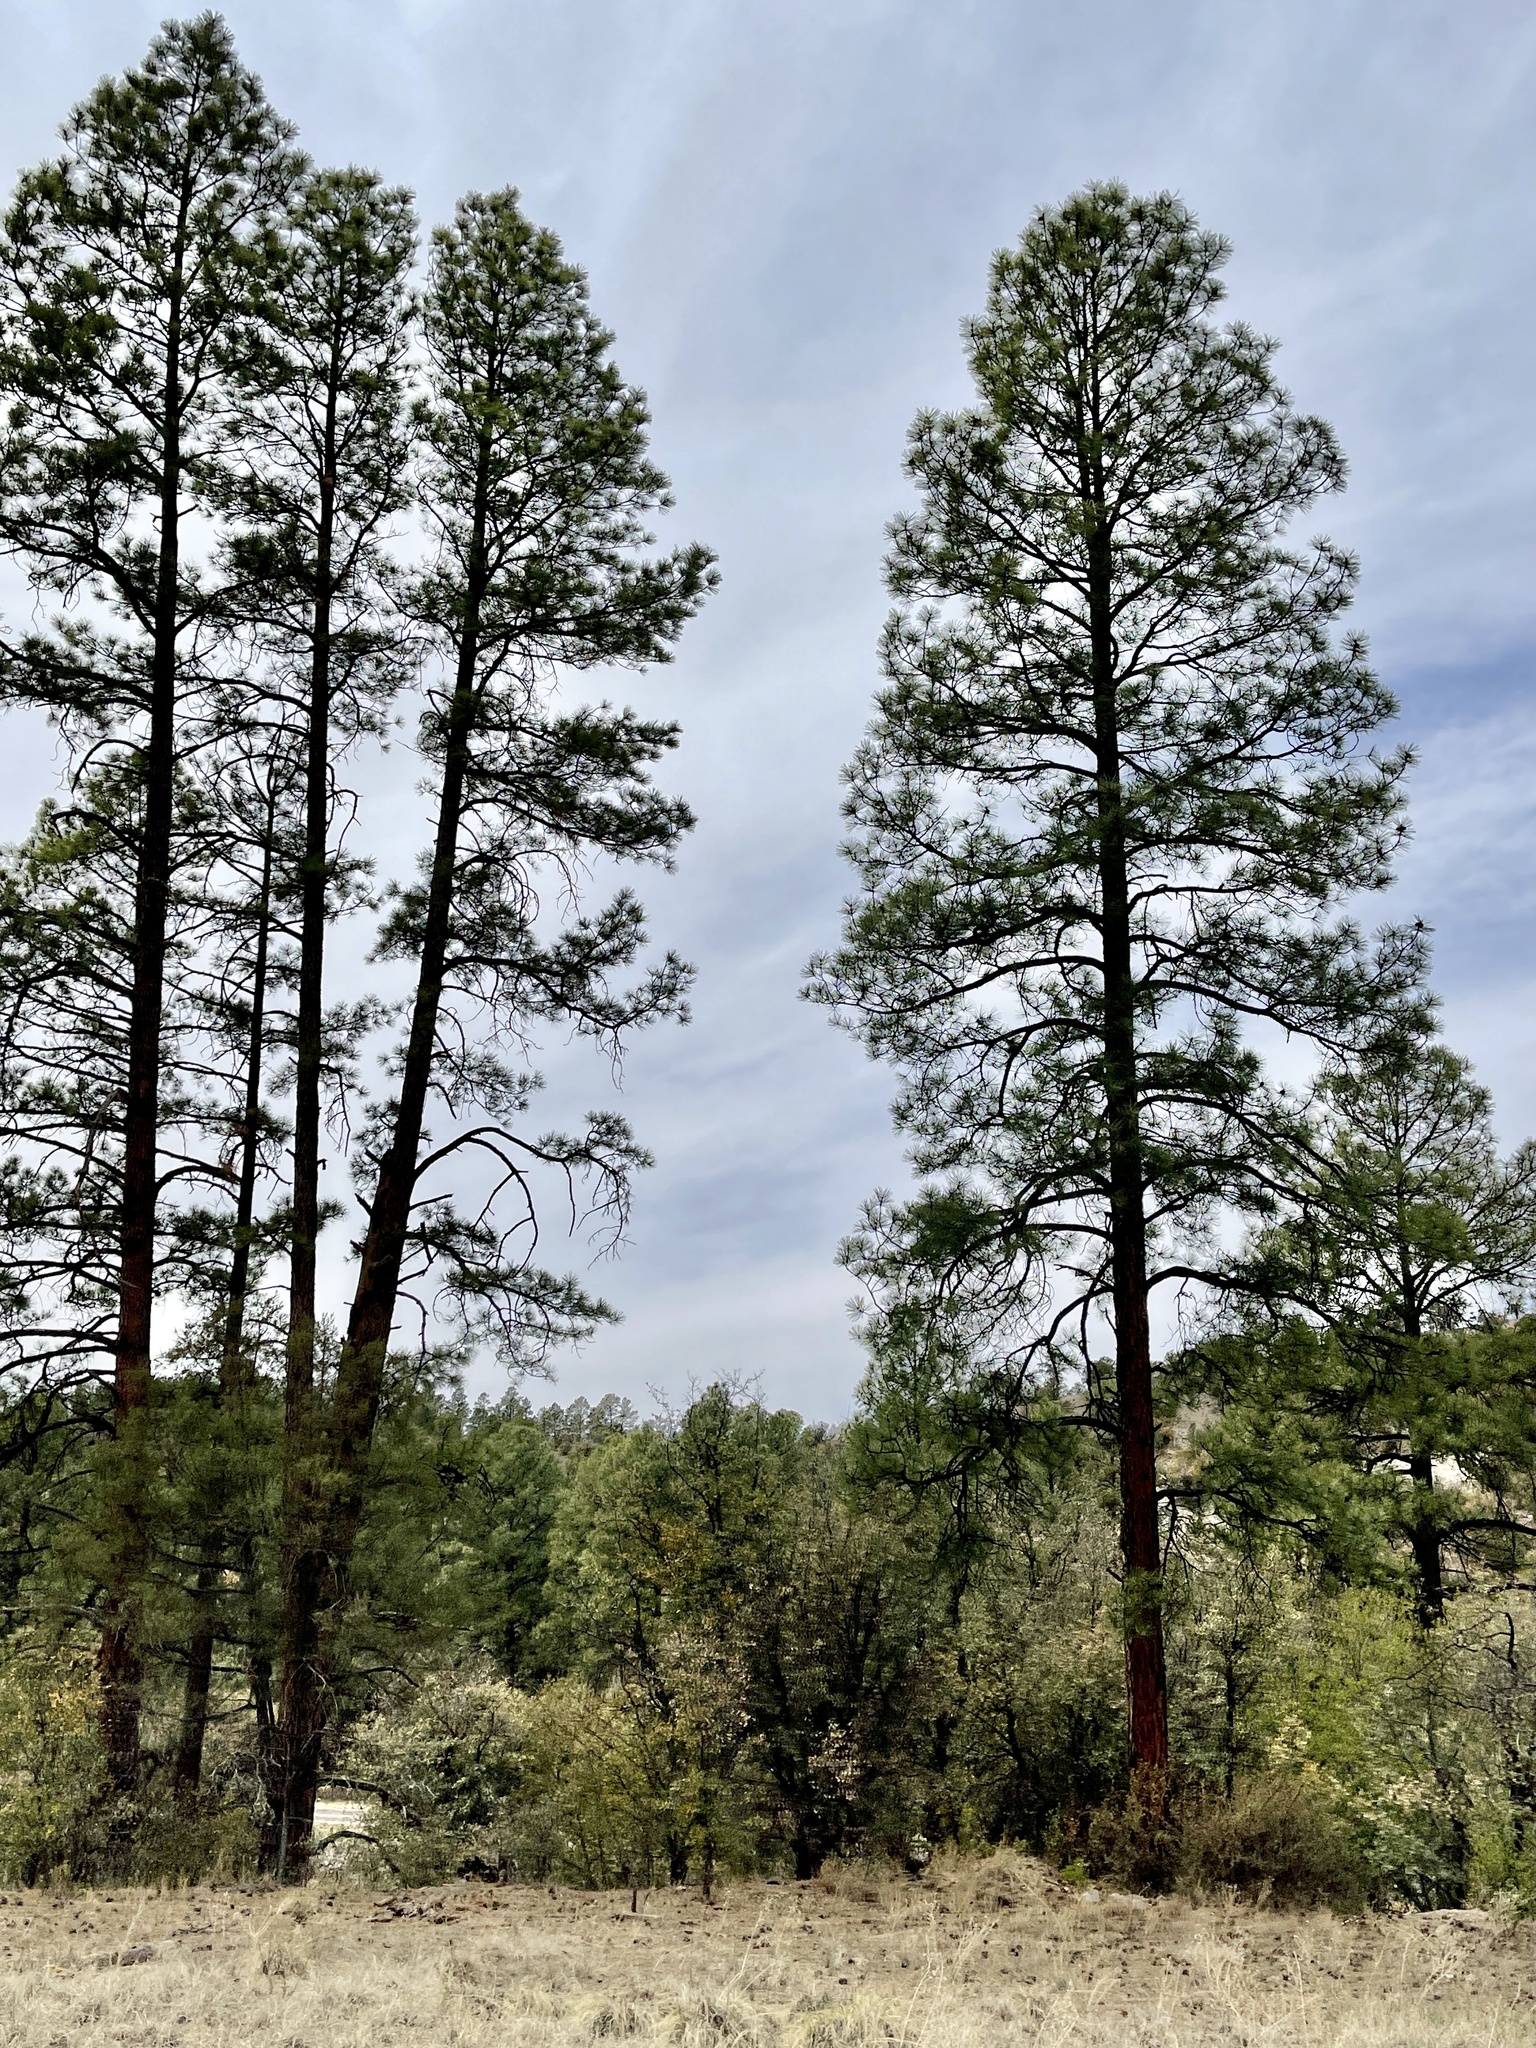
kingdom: Plantae
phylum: Tracheophyta
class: Pinopsida
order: Pinales
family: Pinaceae
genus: Pinus
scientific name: Pinus ponderosa
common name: Western yellow-pine
